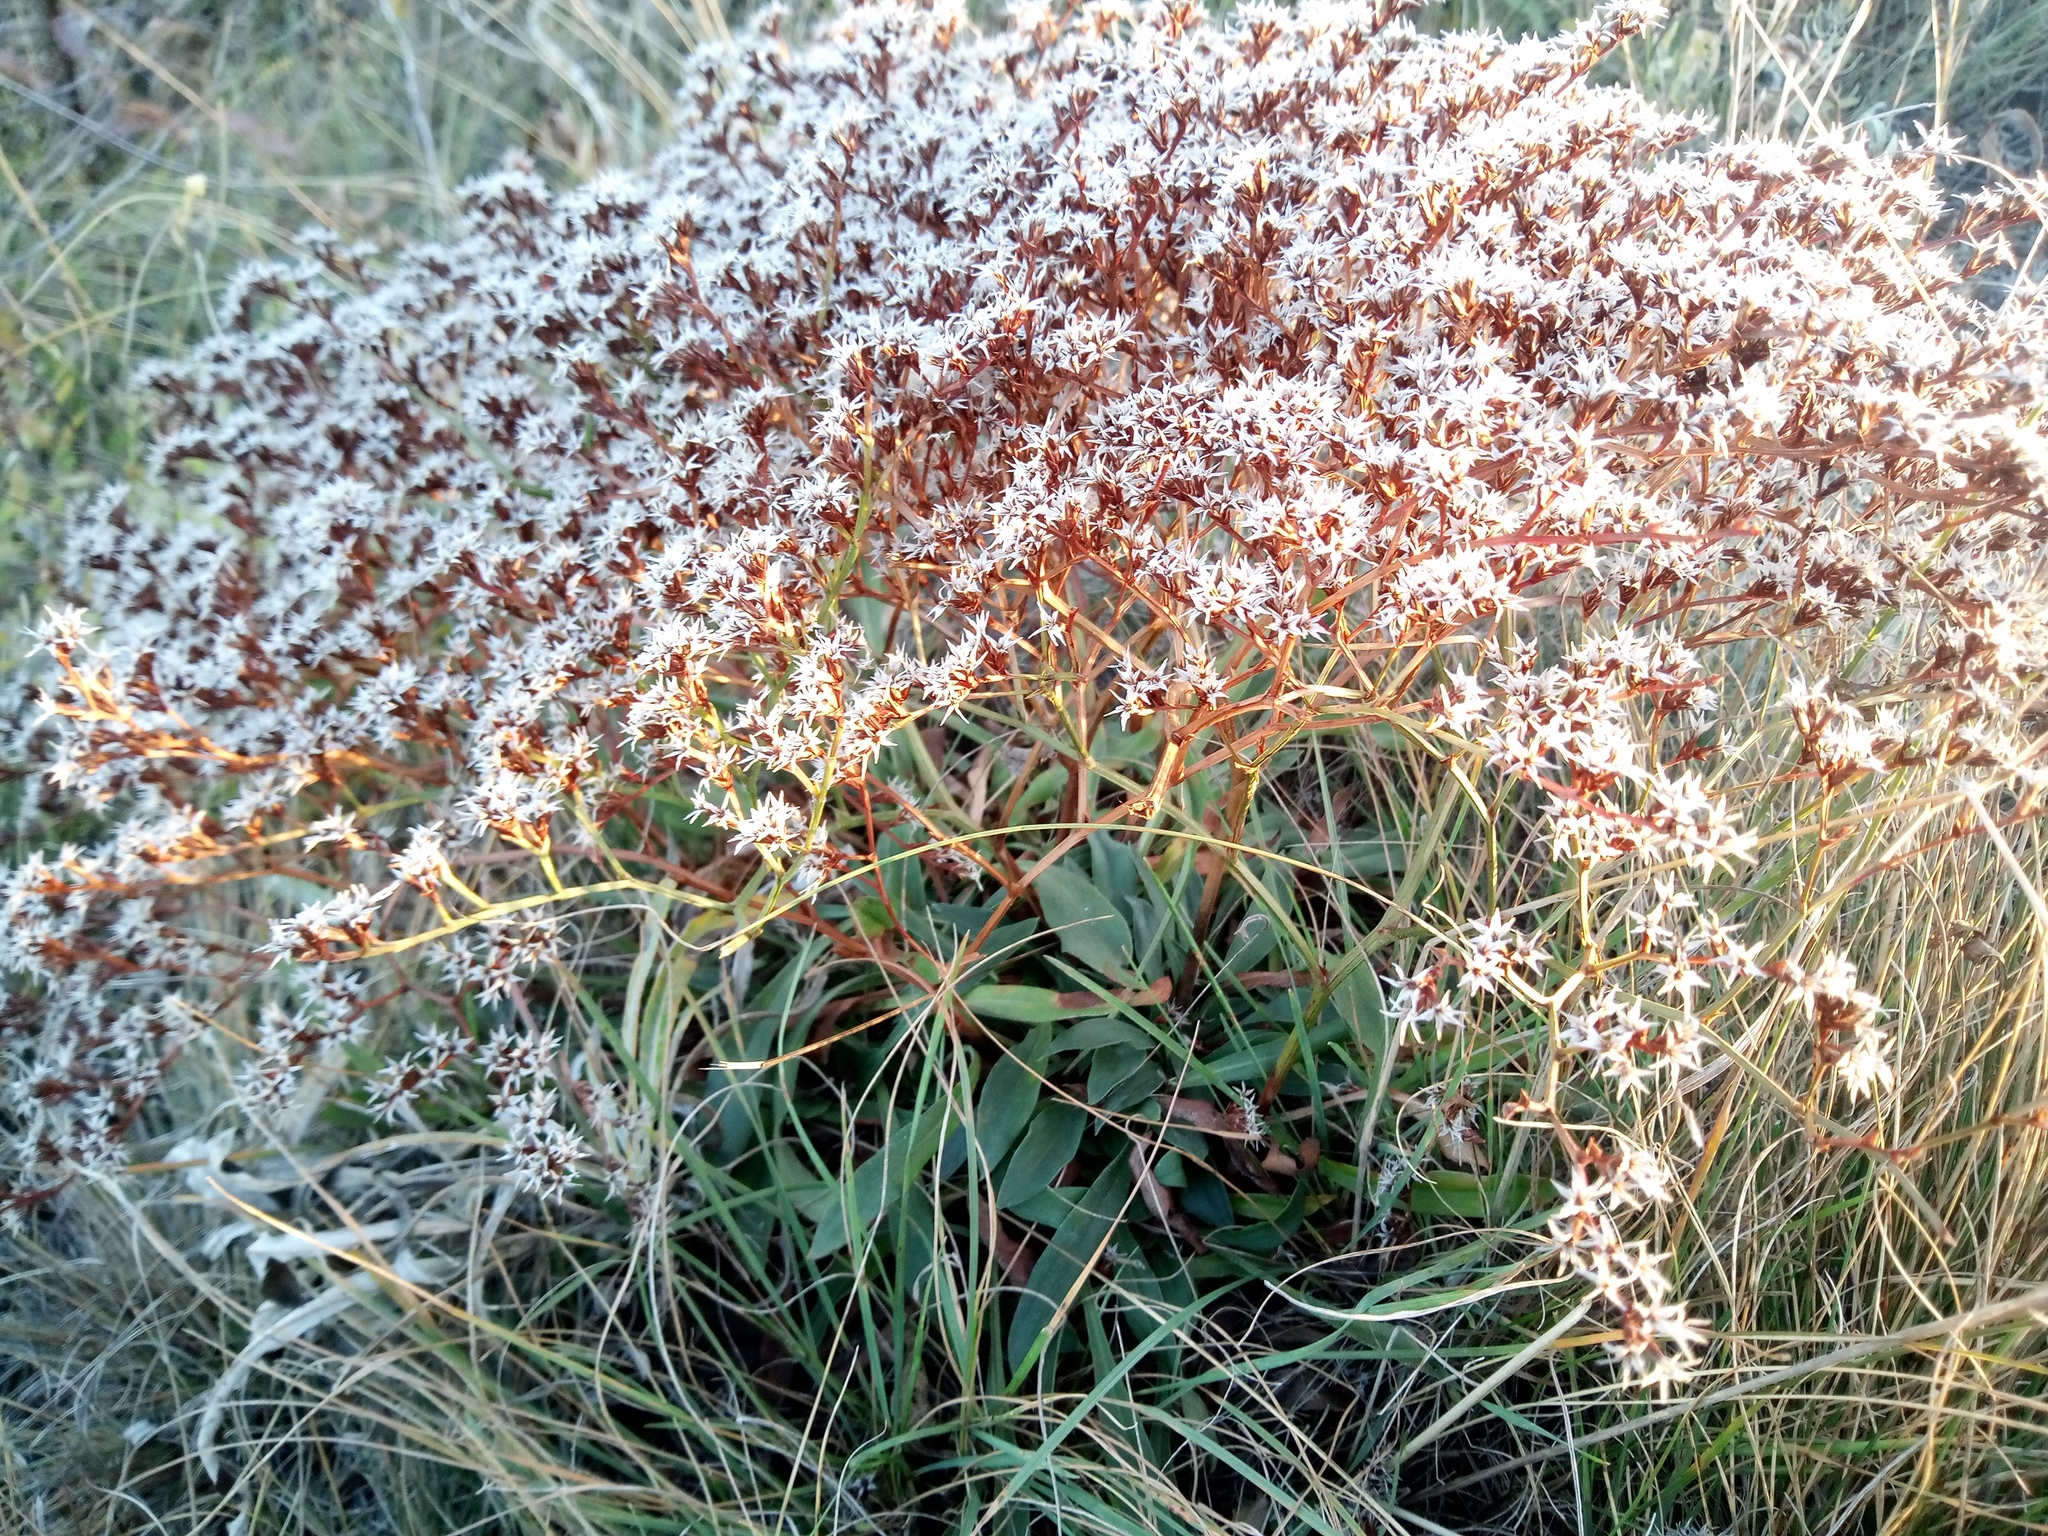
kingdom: Plantae
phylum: Tracheophyta
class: Magnoliopsida
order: Caryophyllales
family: Plumbaginaceae
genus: Goniolimon
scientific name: Goniolimon tataricum
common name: Statice
